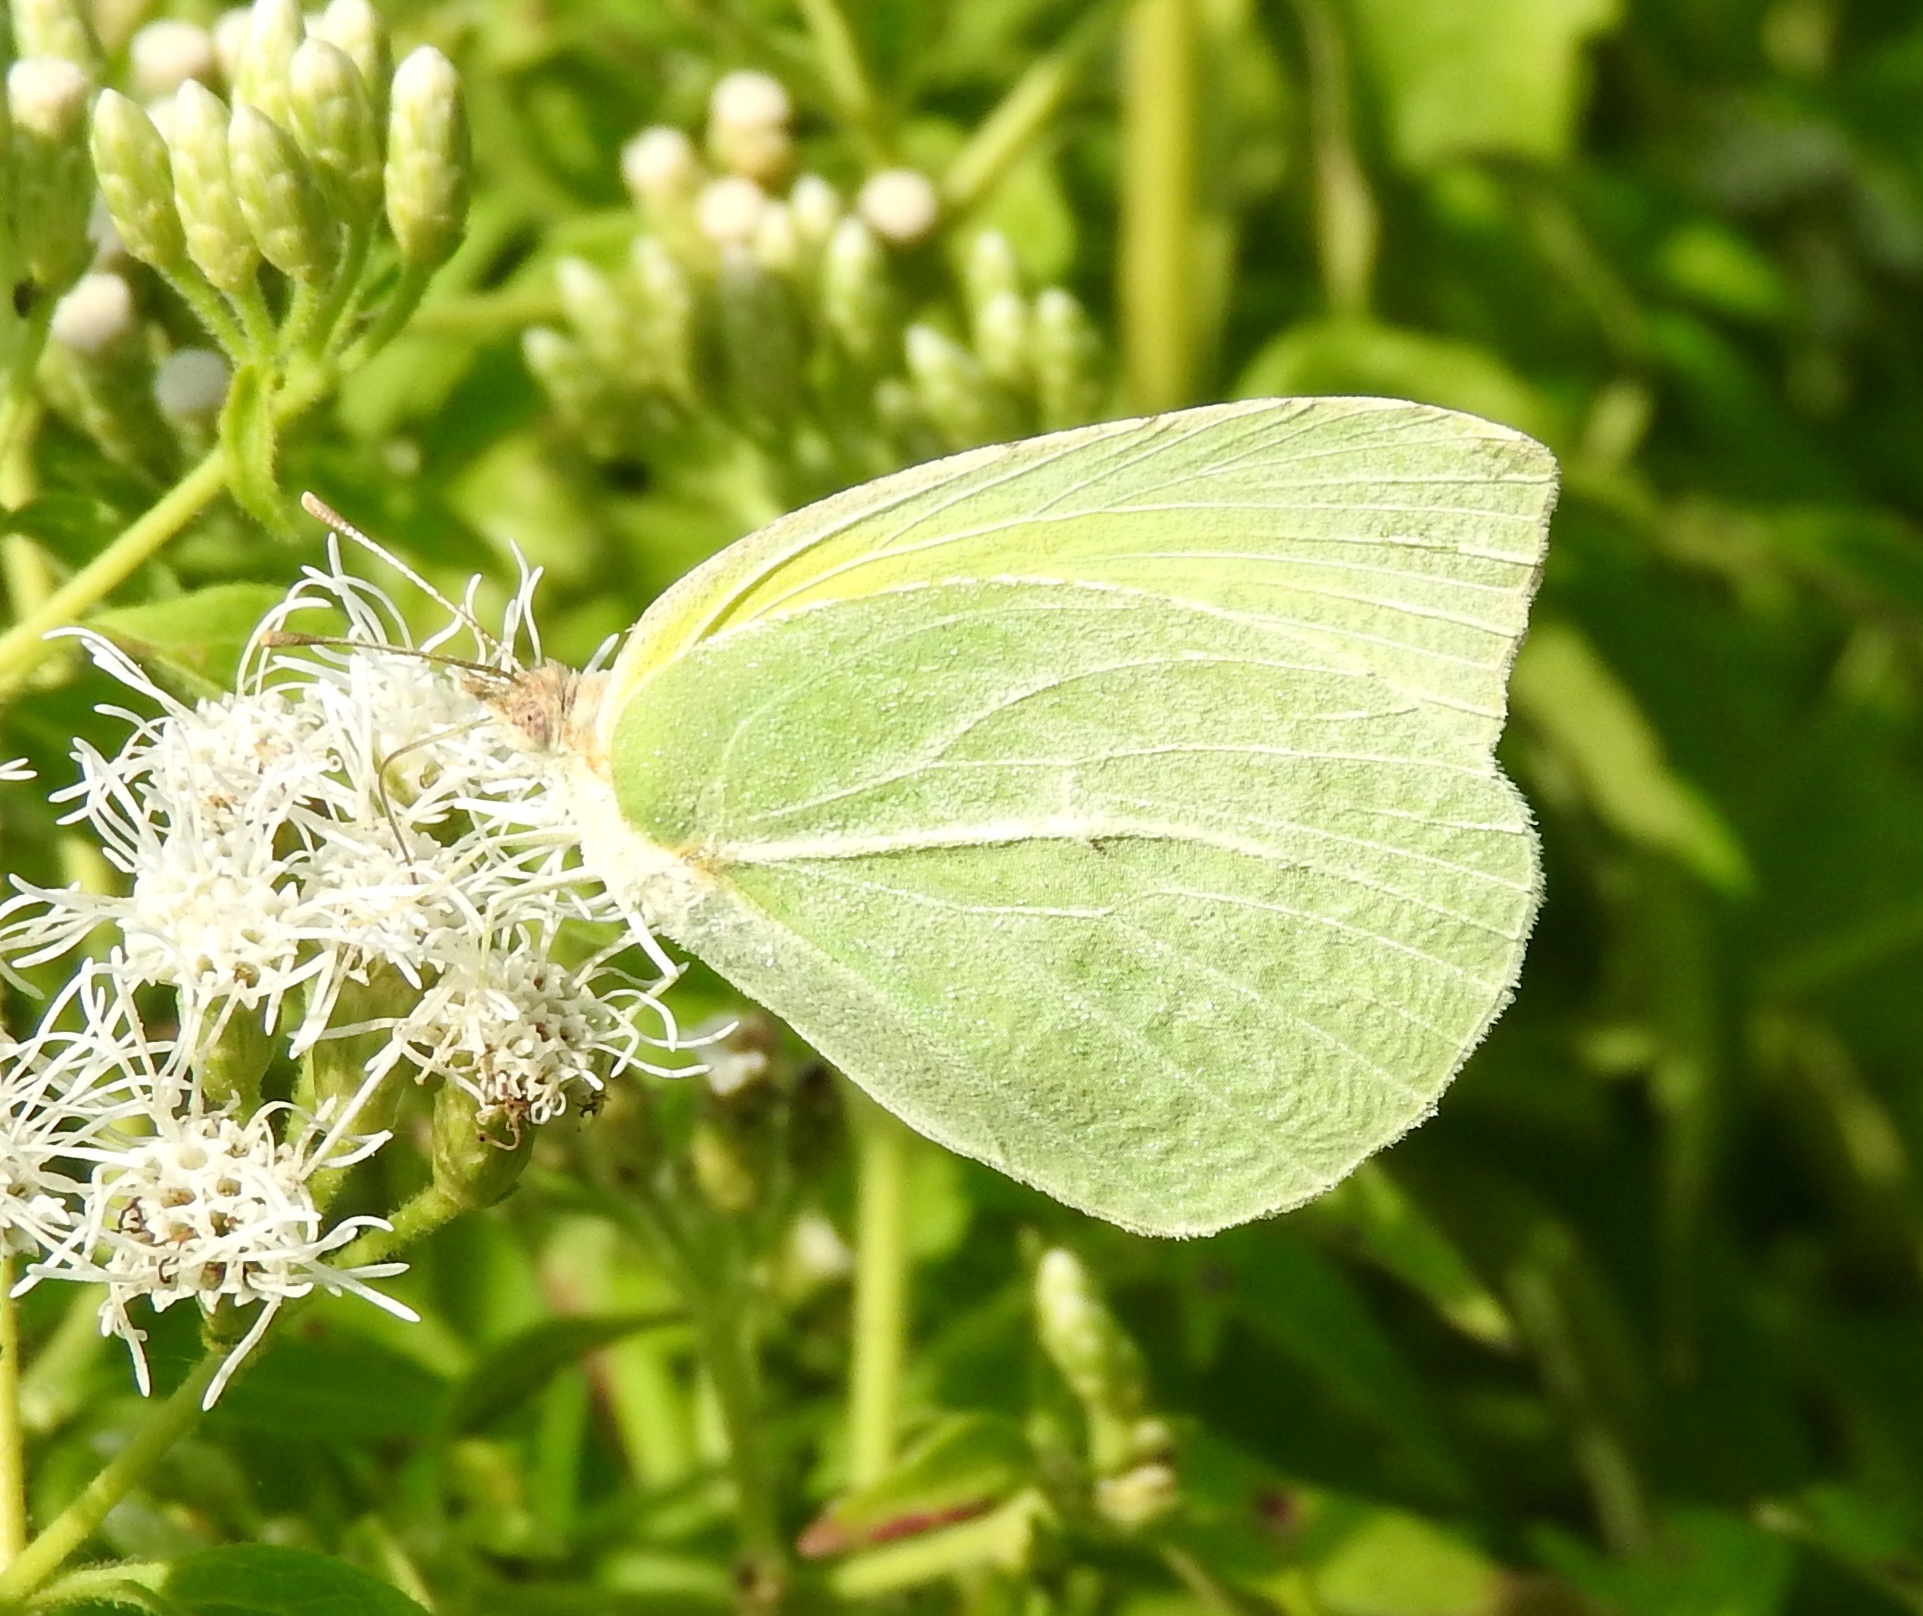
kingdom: Animalia
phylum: Arthropoda
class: Insecta
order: Lepidoptera
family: Pieridae
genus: Kricogonia
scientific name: Kricogonia lyside
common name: Guayacan sulphur,
